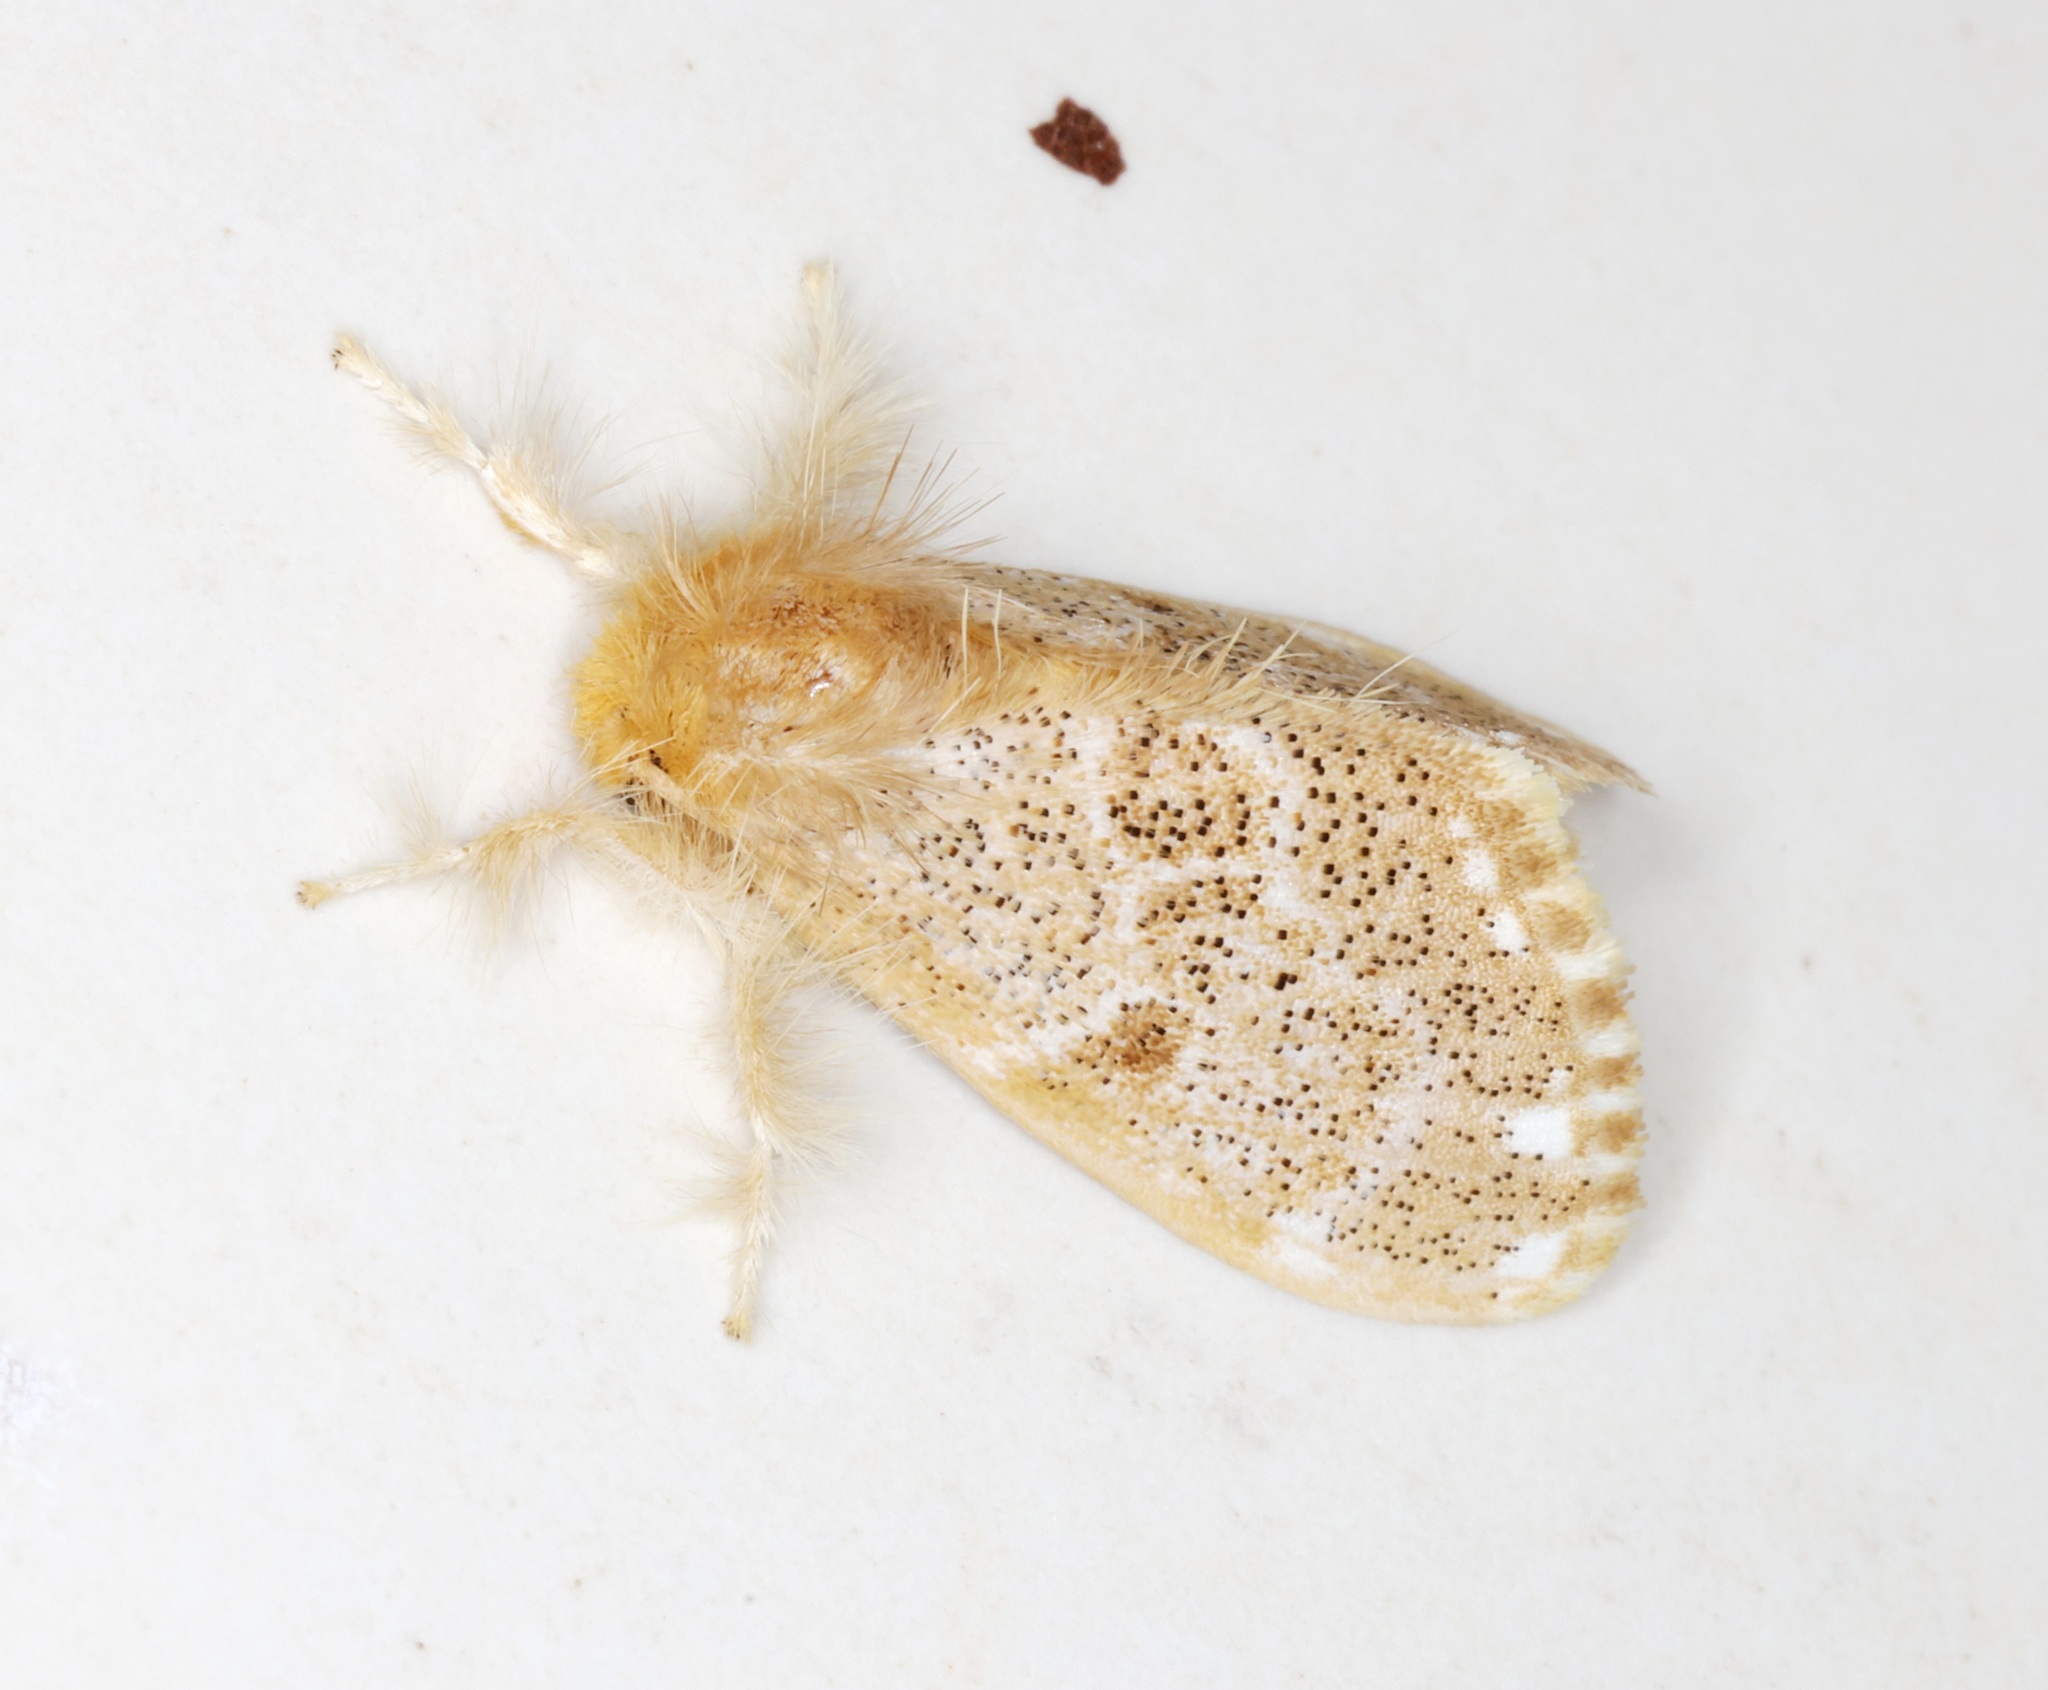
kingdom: Animalia
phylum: Arthropoda
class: Insecta
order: Lepidoptera
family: Erebidae
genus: Euproctis
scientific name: Euproctis inornata
